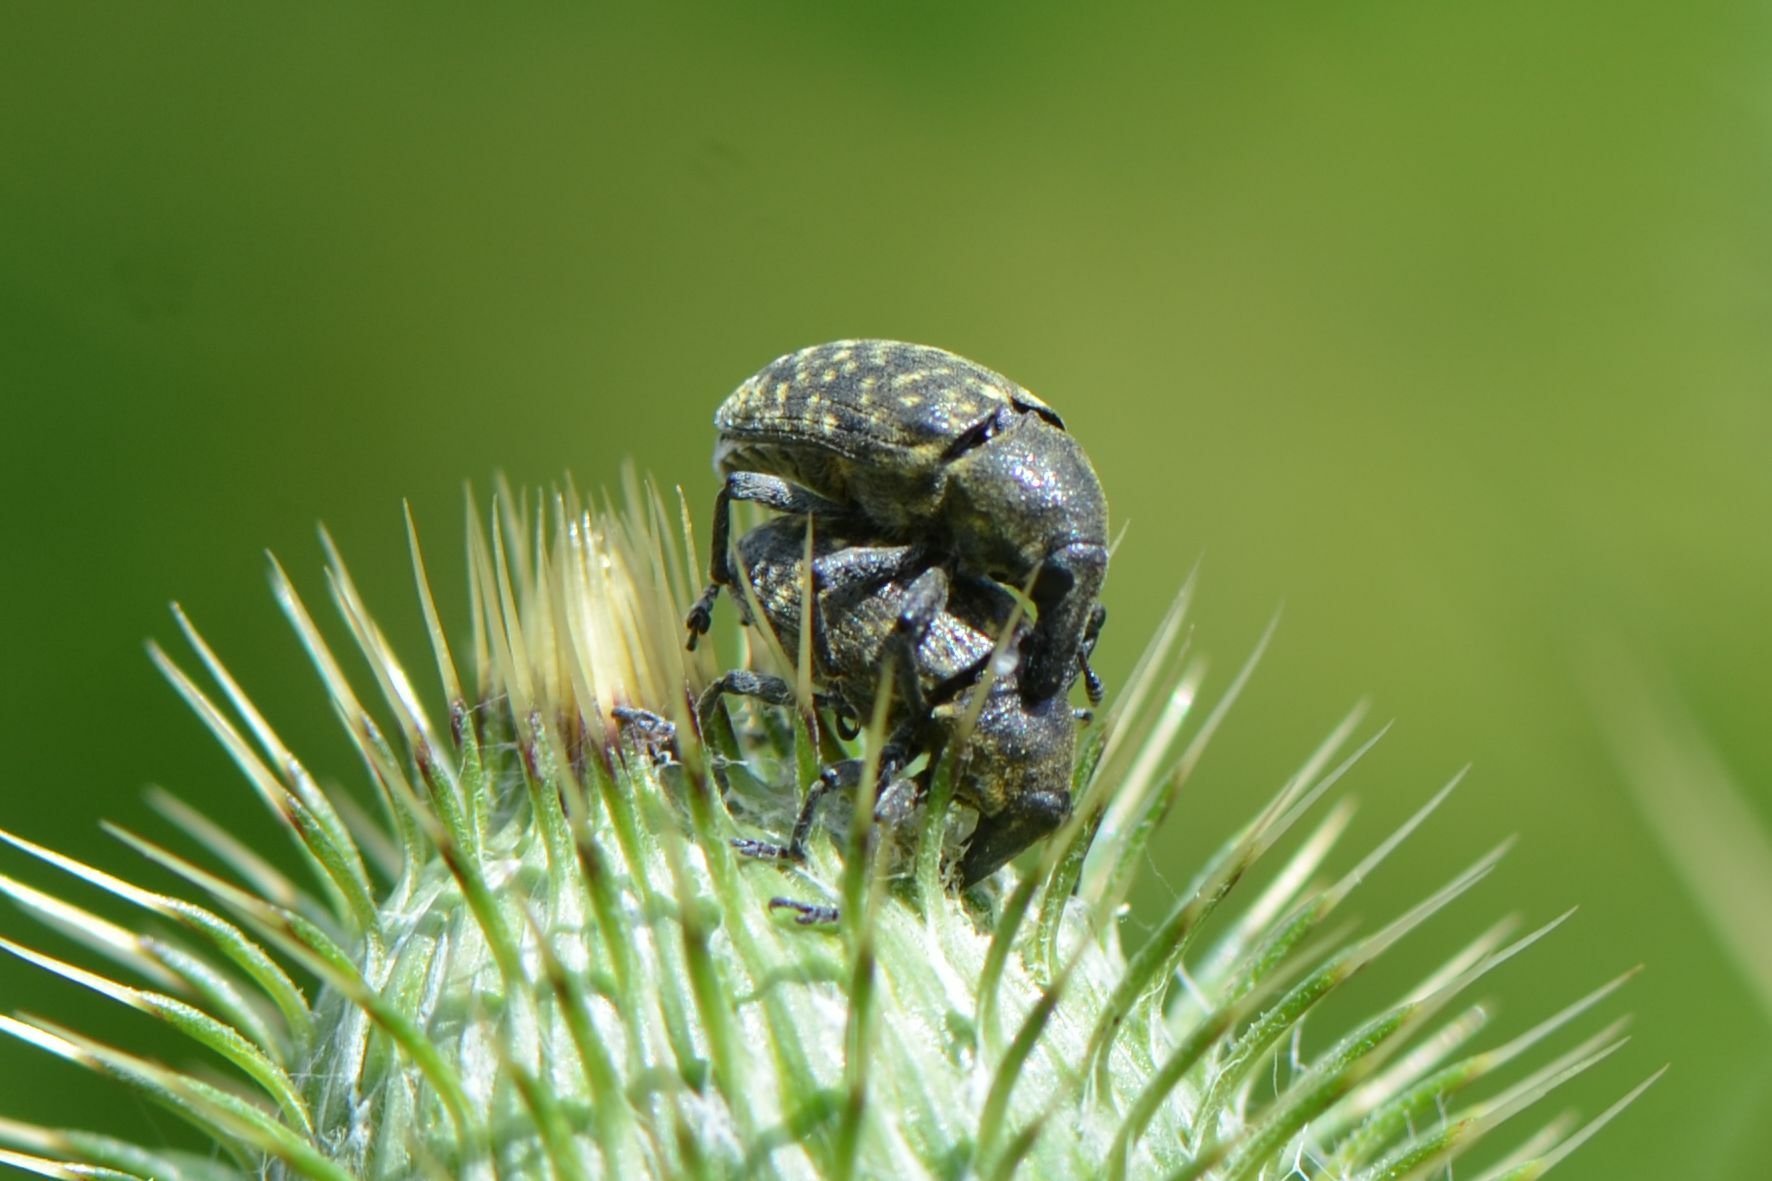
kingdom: Animalia
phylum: Arthropoda
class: Insecta
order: Coleoptera
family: Curculionidae
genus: Larinus
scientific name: Larinus turbinatus
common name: Weevil
